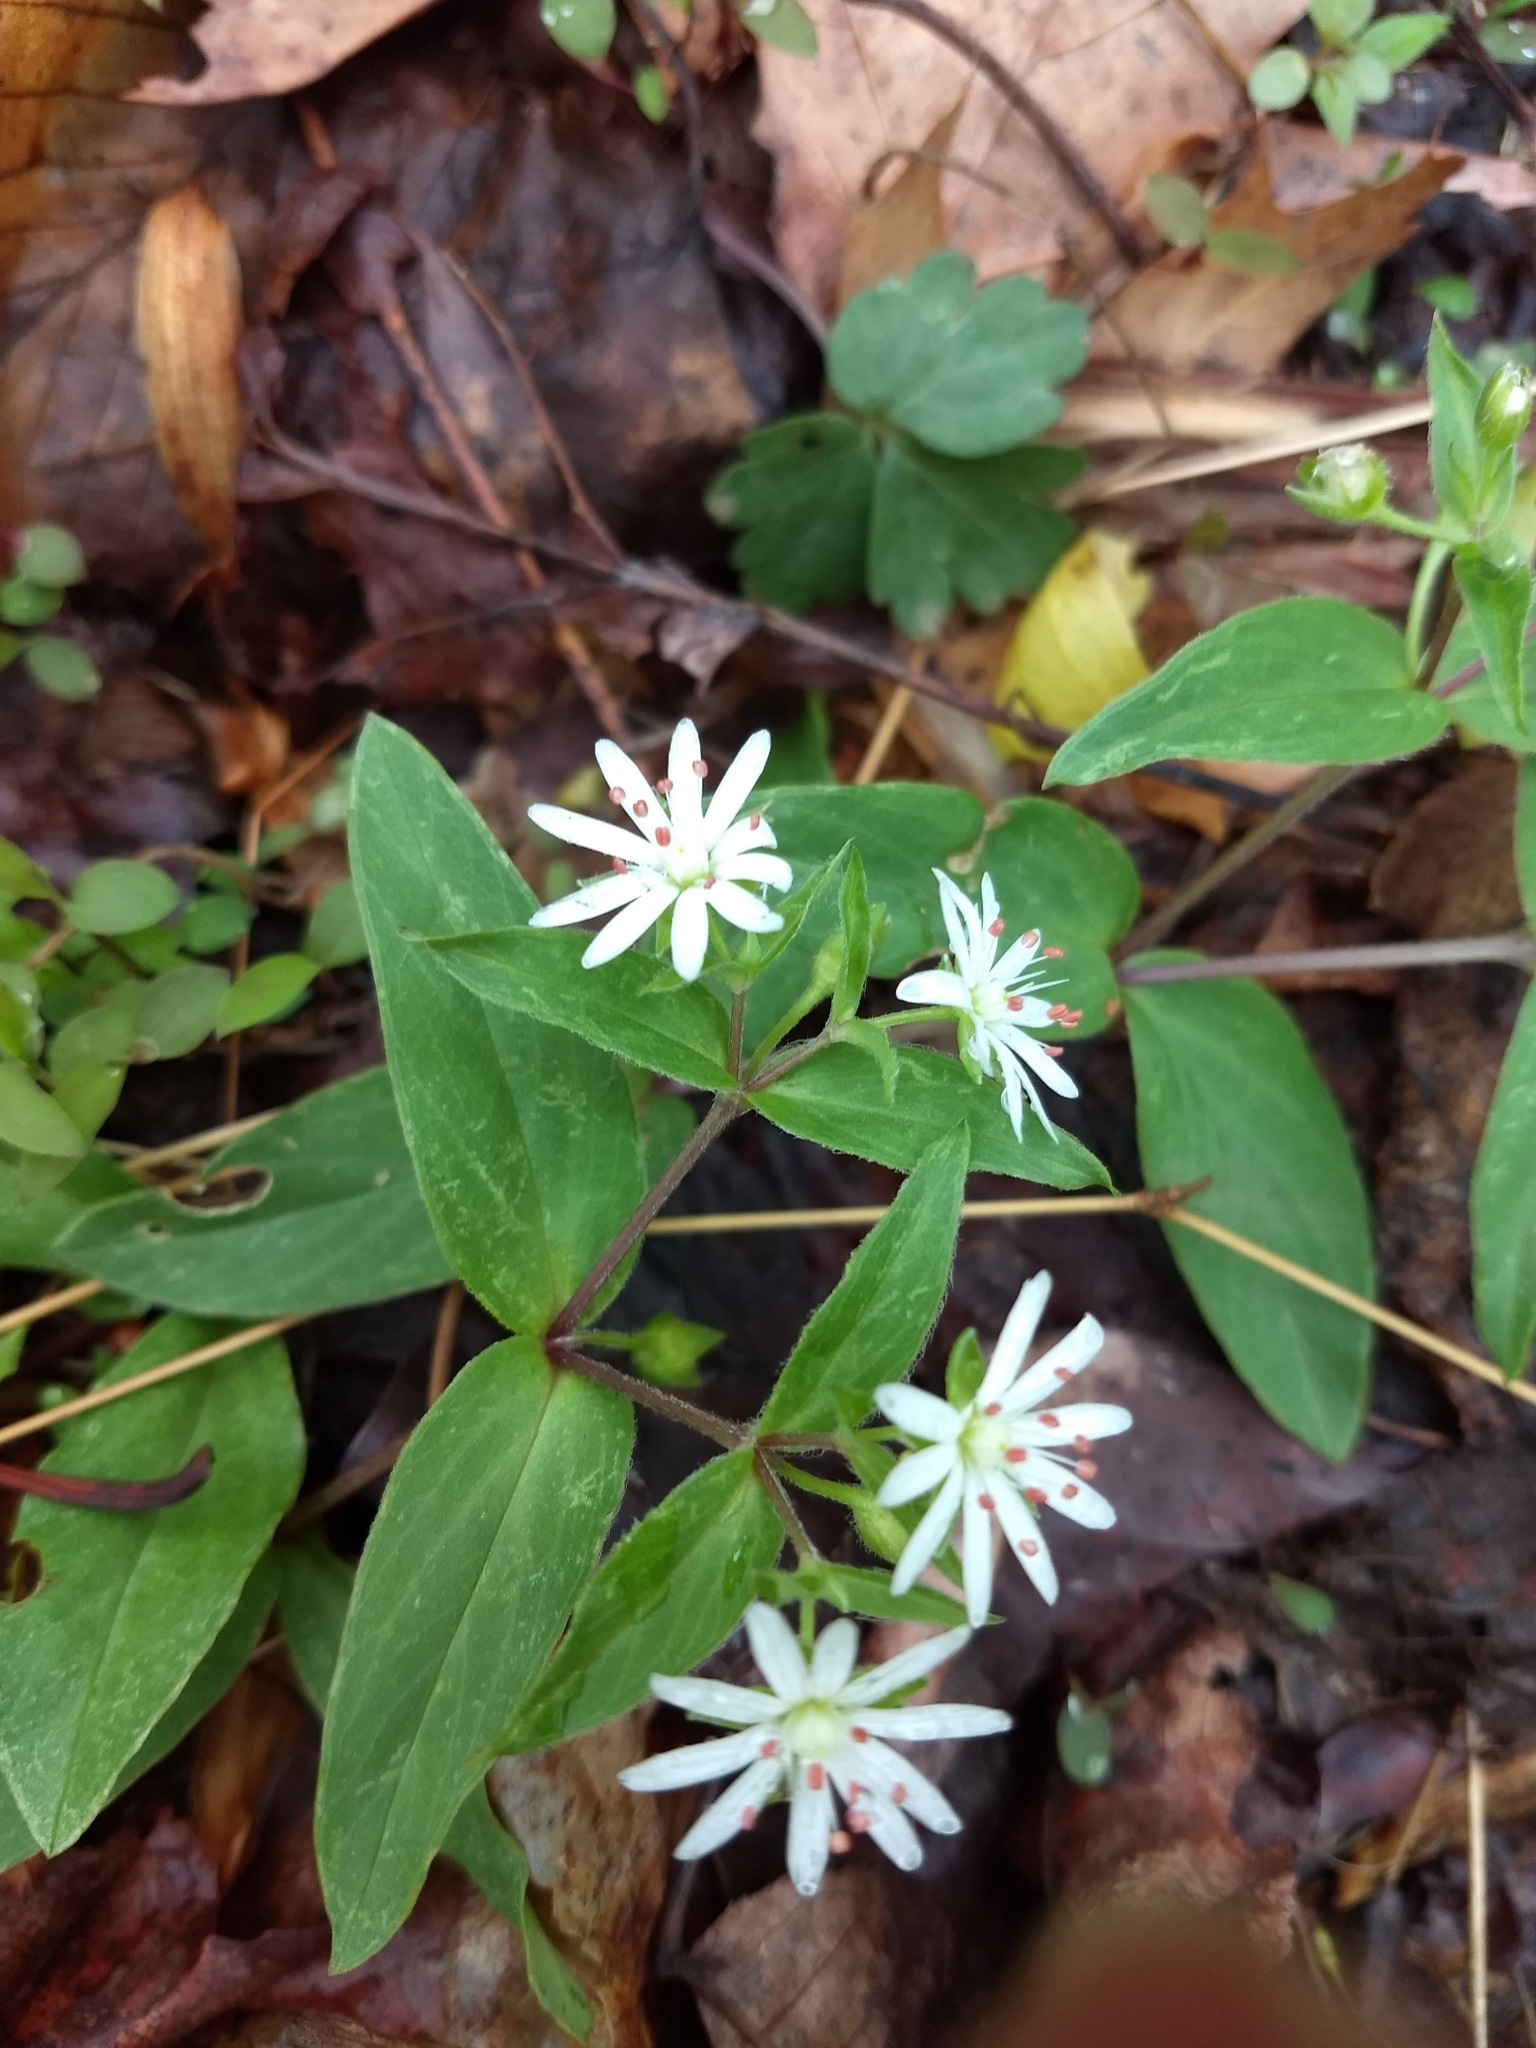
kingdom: Plantae
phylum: Tracheophyta
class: Magnoliopsida
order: Caryophyllales
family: Caryophyllaceae
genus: Stellaria
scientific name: Stellaria pubera
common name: Star chickweed
